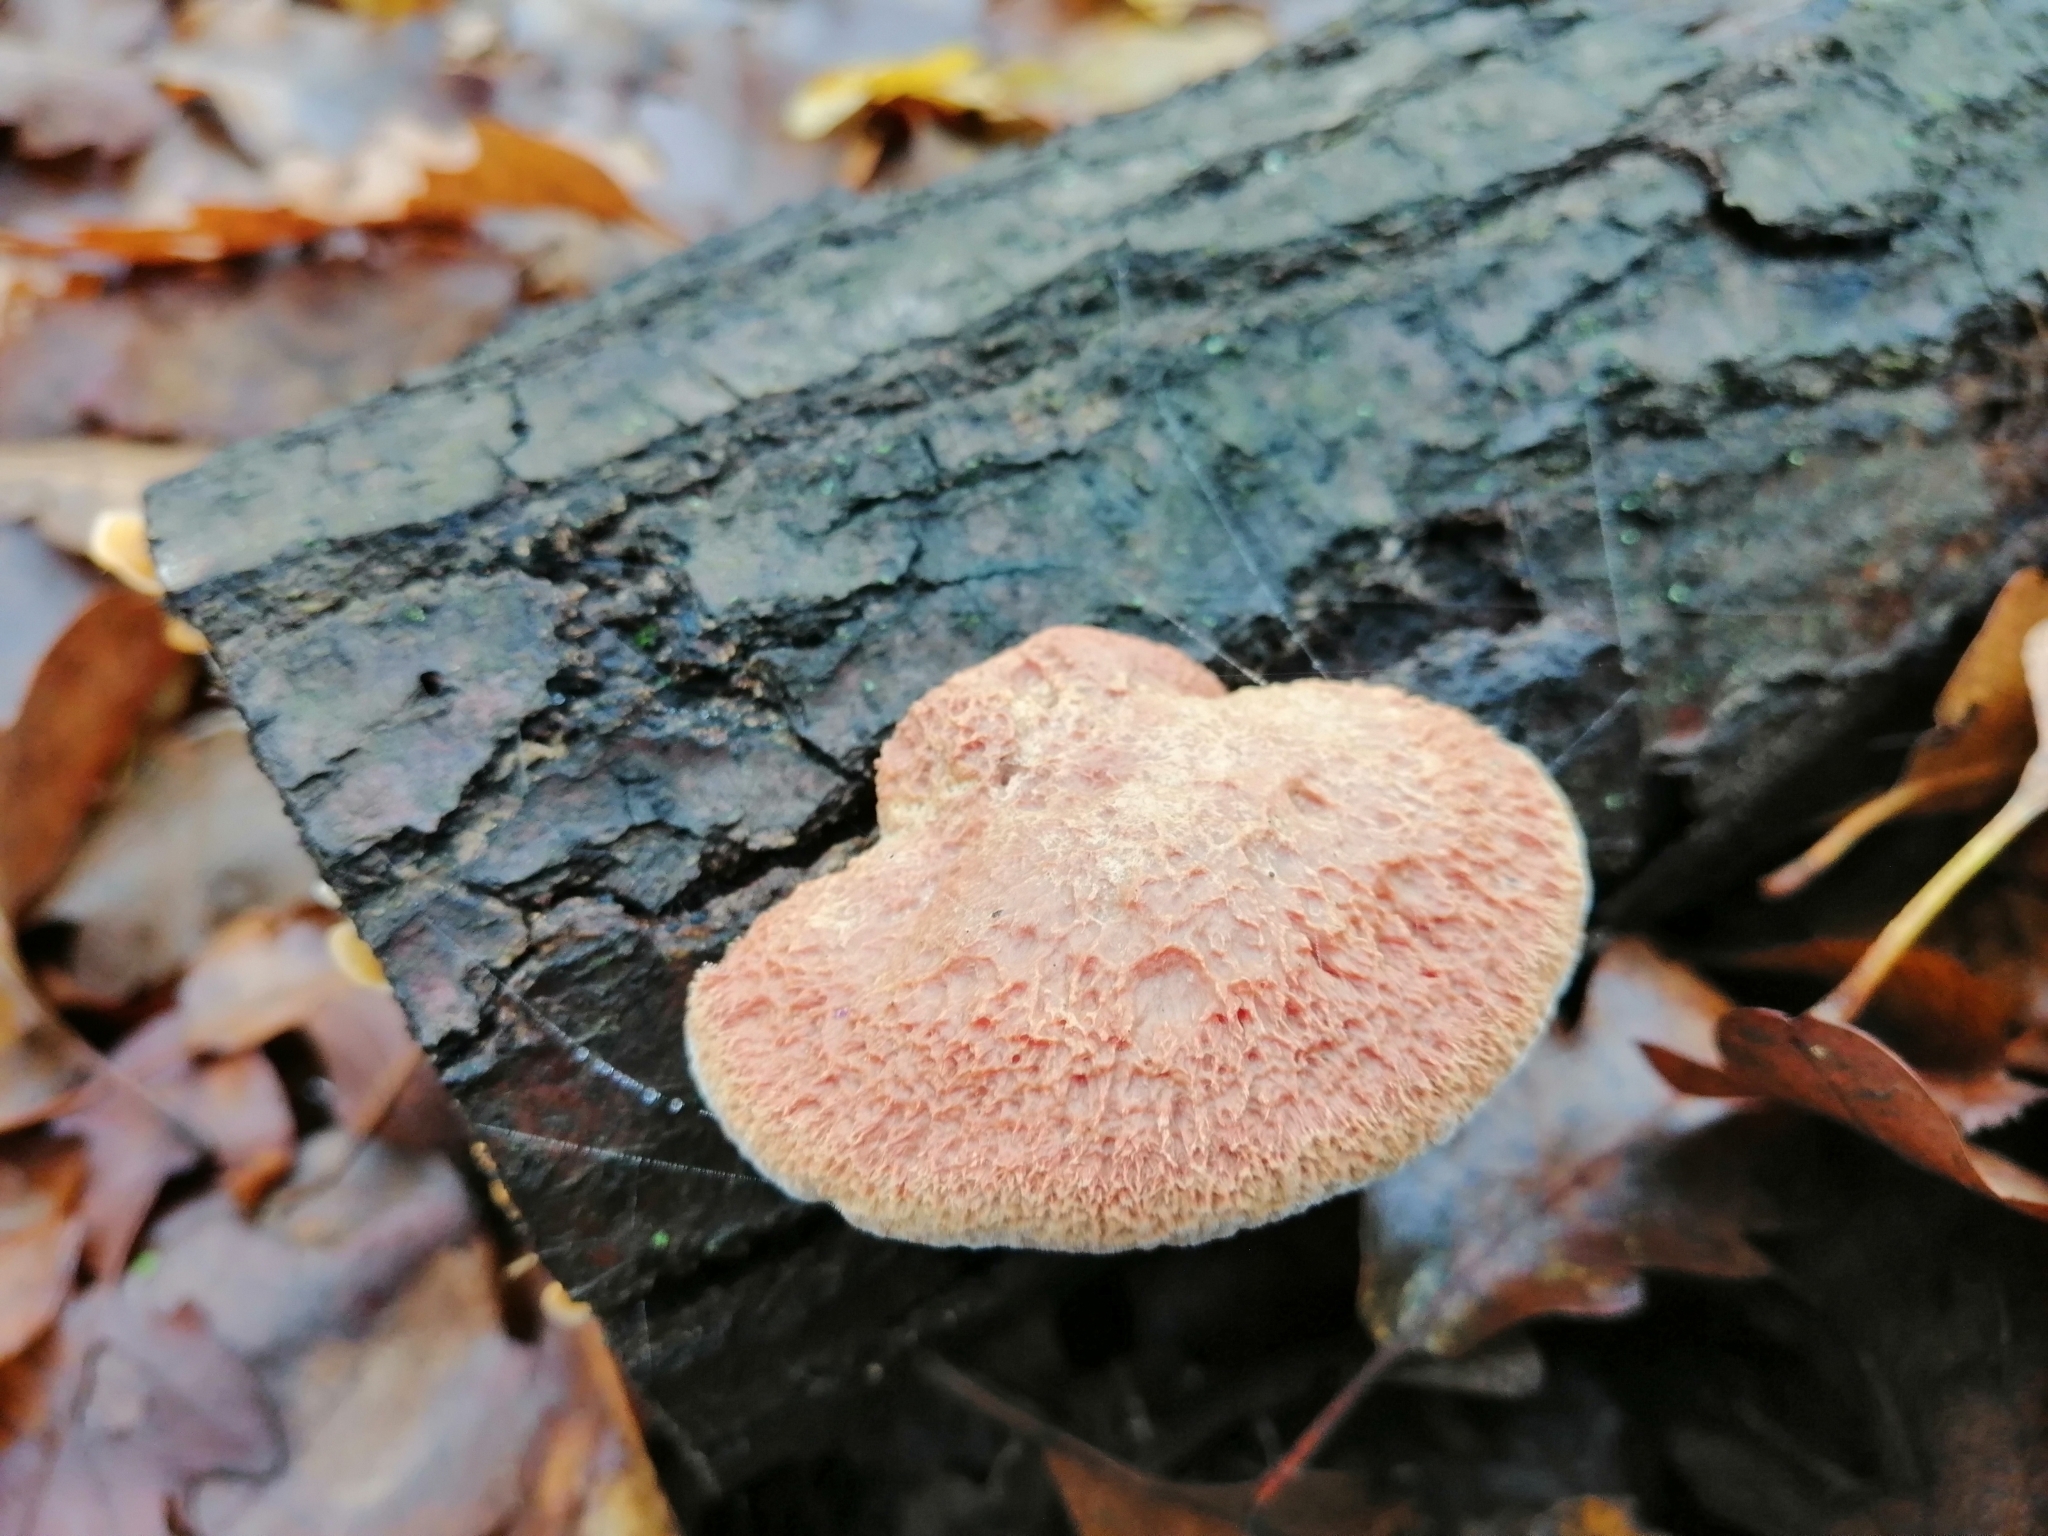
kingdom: Fungi
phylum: Basidiomycota
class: Agaricomycetes
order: Polyporales
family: Phanerochaetaceae
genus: Hapalopilus
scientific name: Hapalopilus rutilans
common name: Tender nesting polypore
